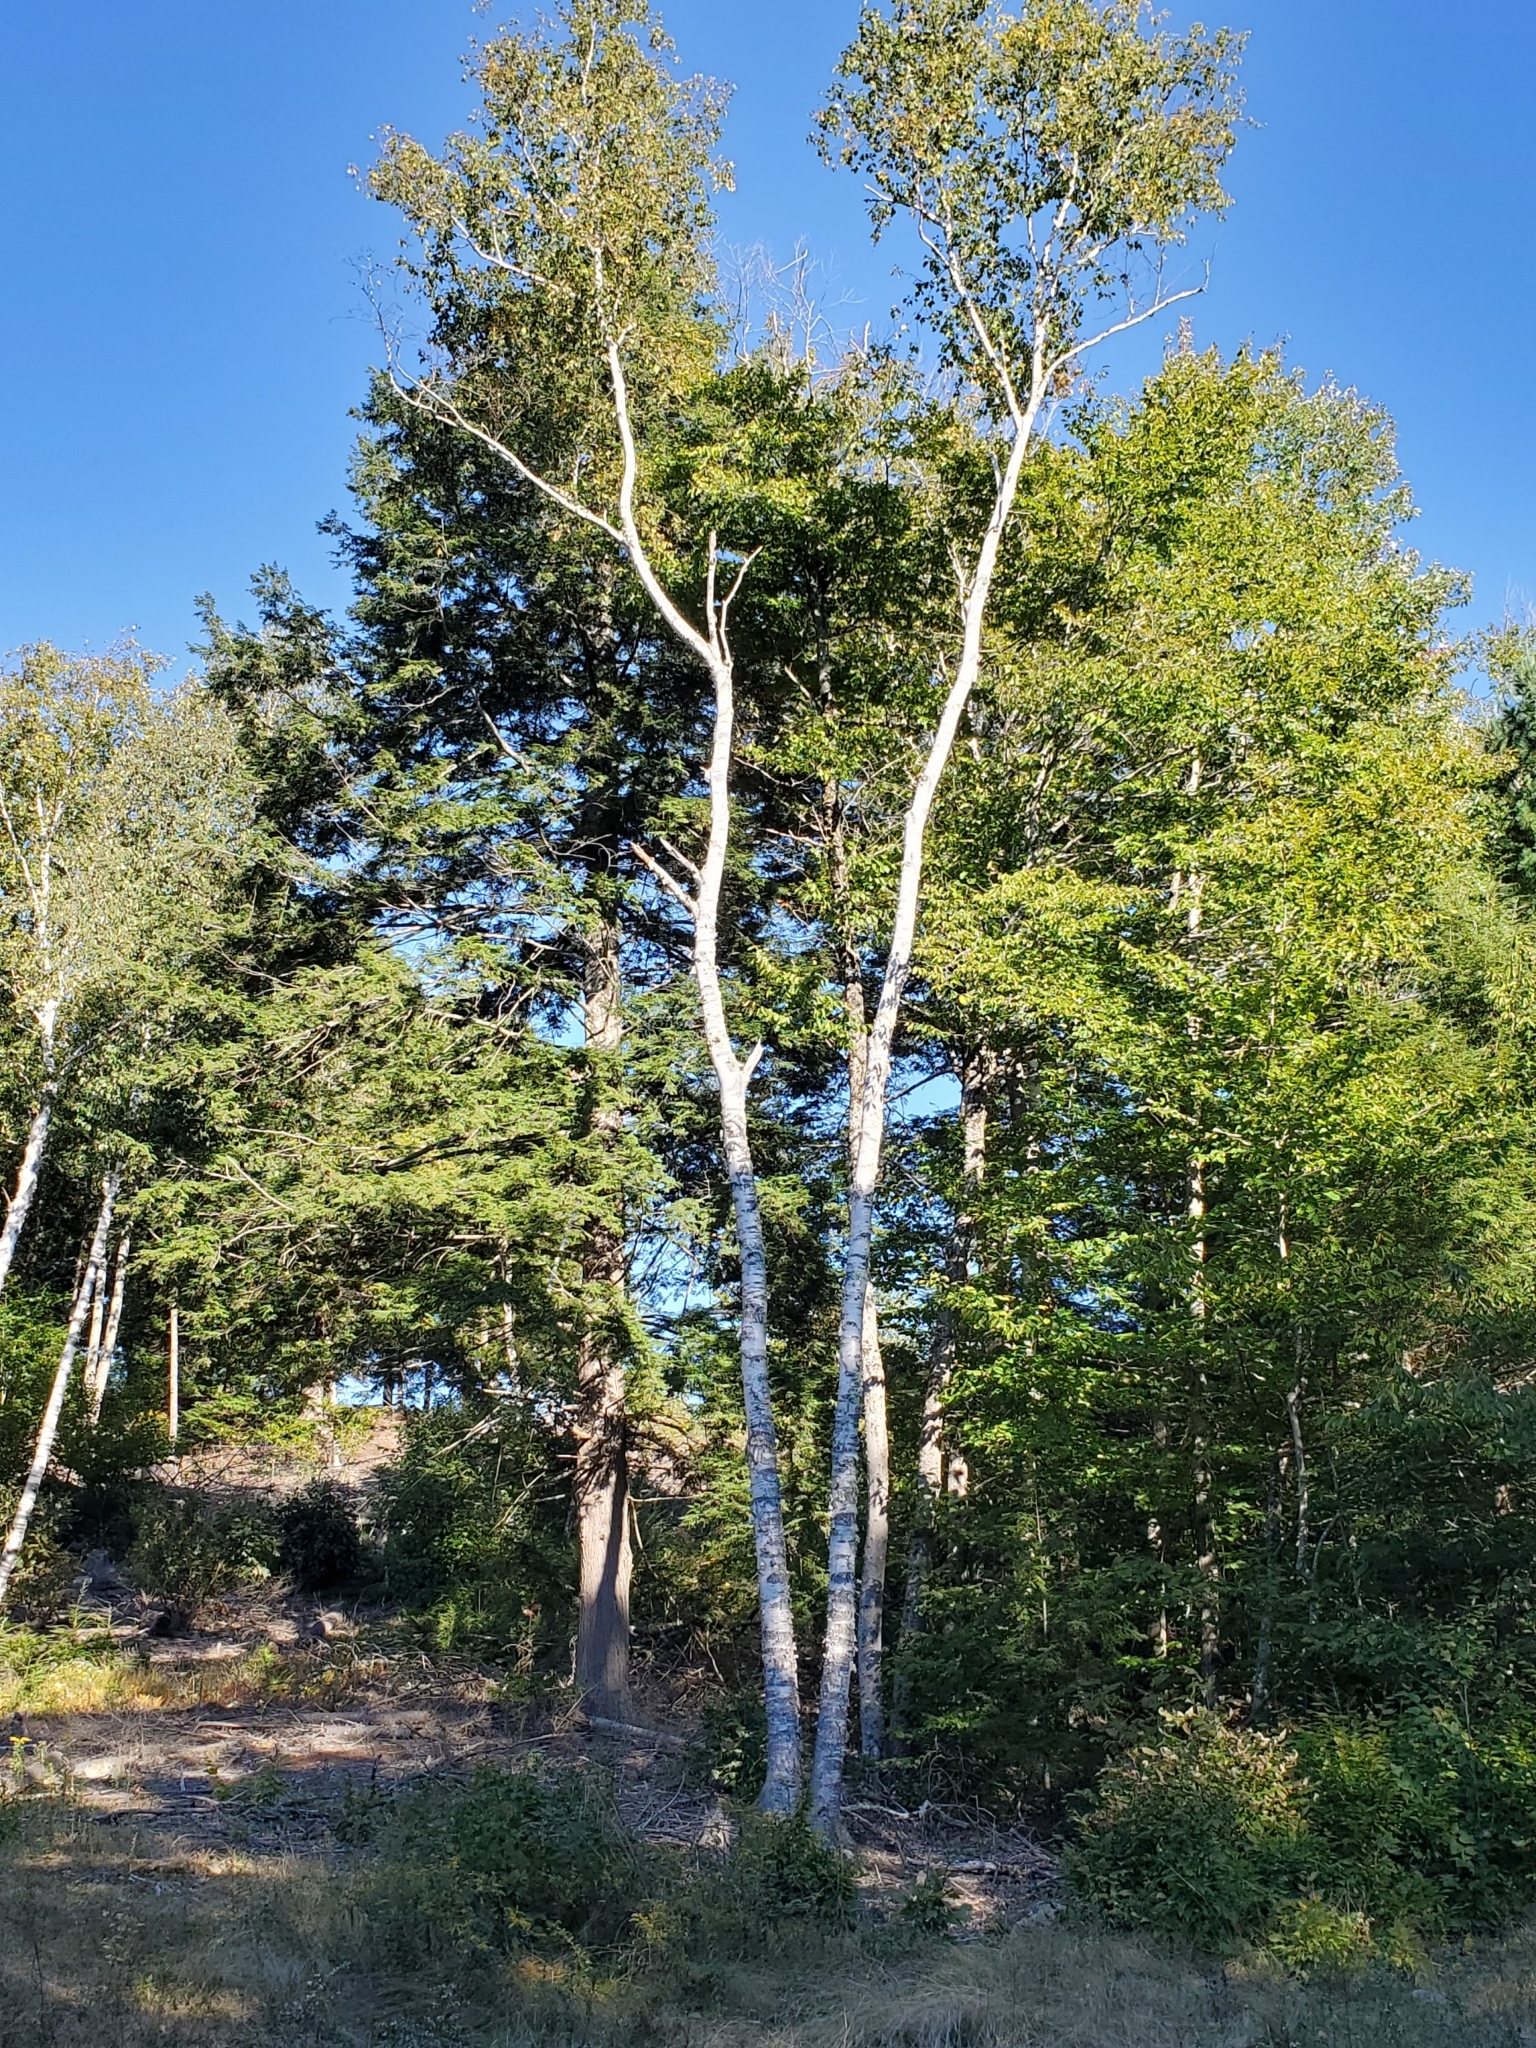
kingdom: Plantae
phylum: Tracheophyta
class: Magnoliopsida
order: Fagales
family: Betulaceae
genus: Betula
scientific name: Betula papyrifera
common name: Paper birch
